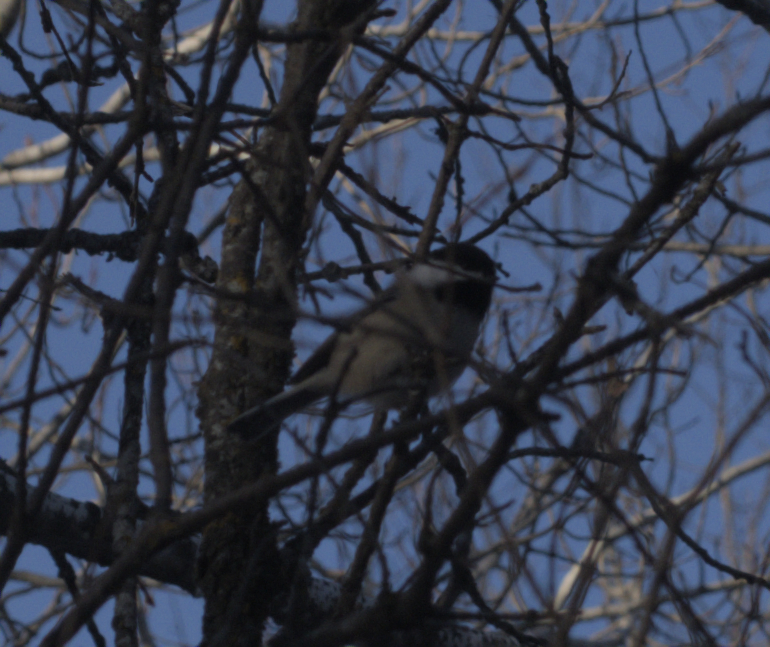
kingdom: Animalia
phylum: Chordata
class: Aves
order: Passeriformes
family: Paridae
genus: Poecile
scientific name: Poecile atricapillus
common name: Black-capped chickadee
